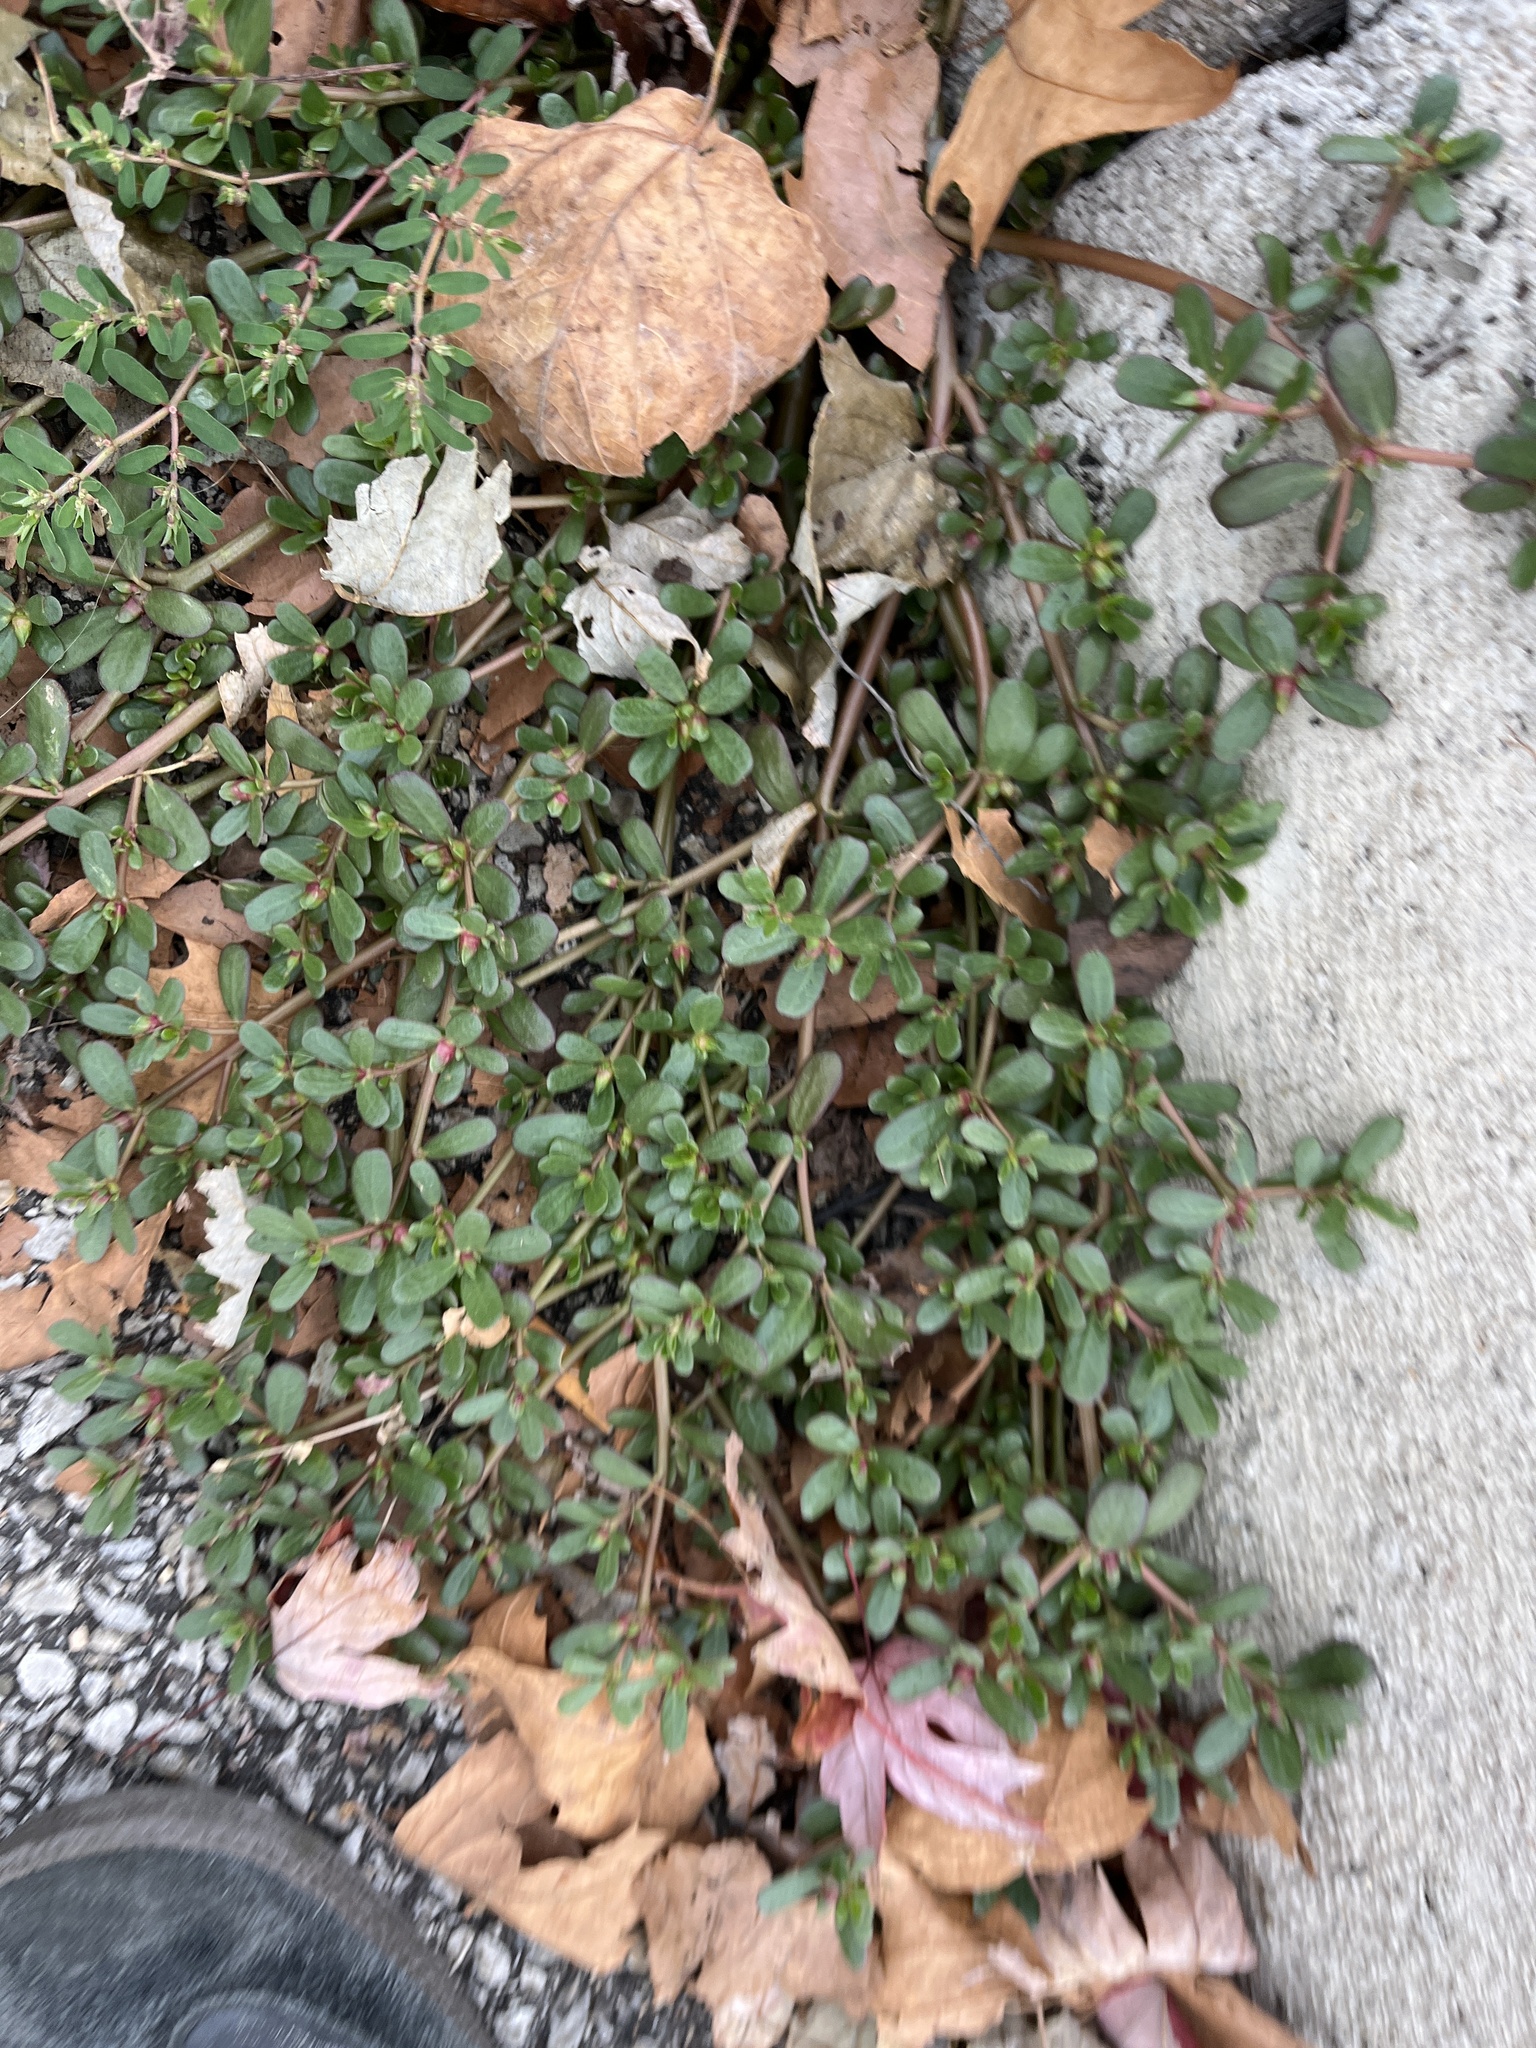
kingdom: Plantae
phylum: Tracheophyta
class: Magnoliopsida
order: Caryophyllales
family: Portulacaceae
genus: Portulaca
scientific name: Portulaca oleracea
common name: Common purslane
